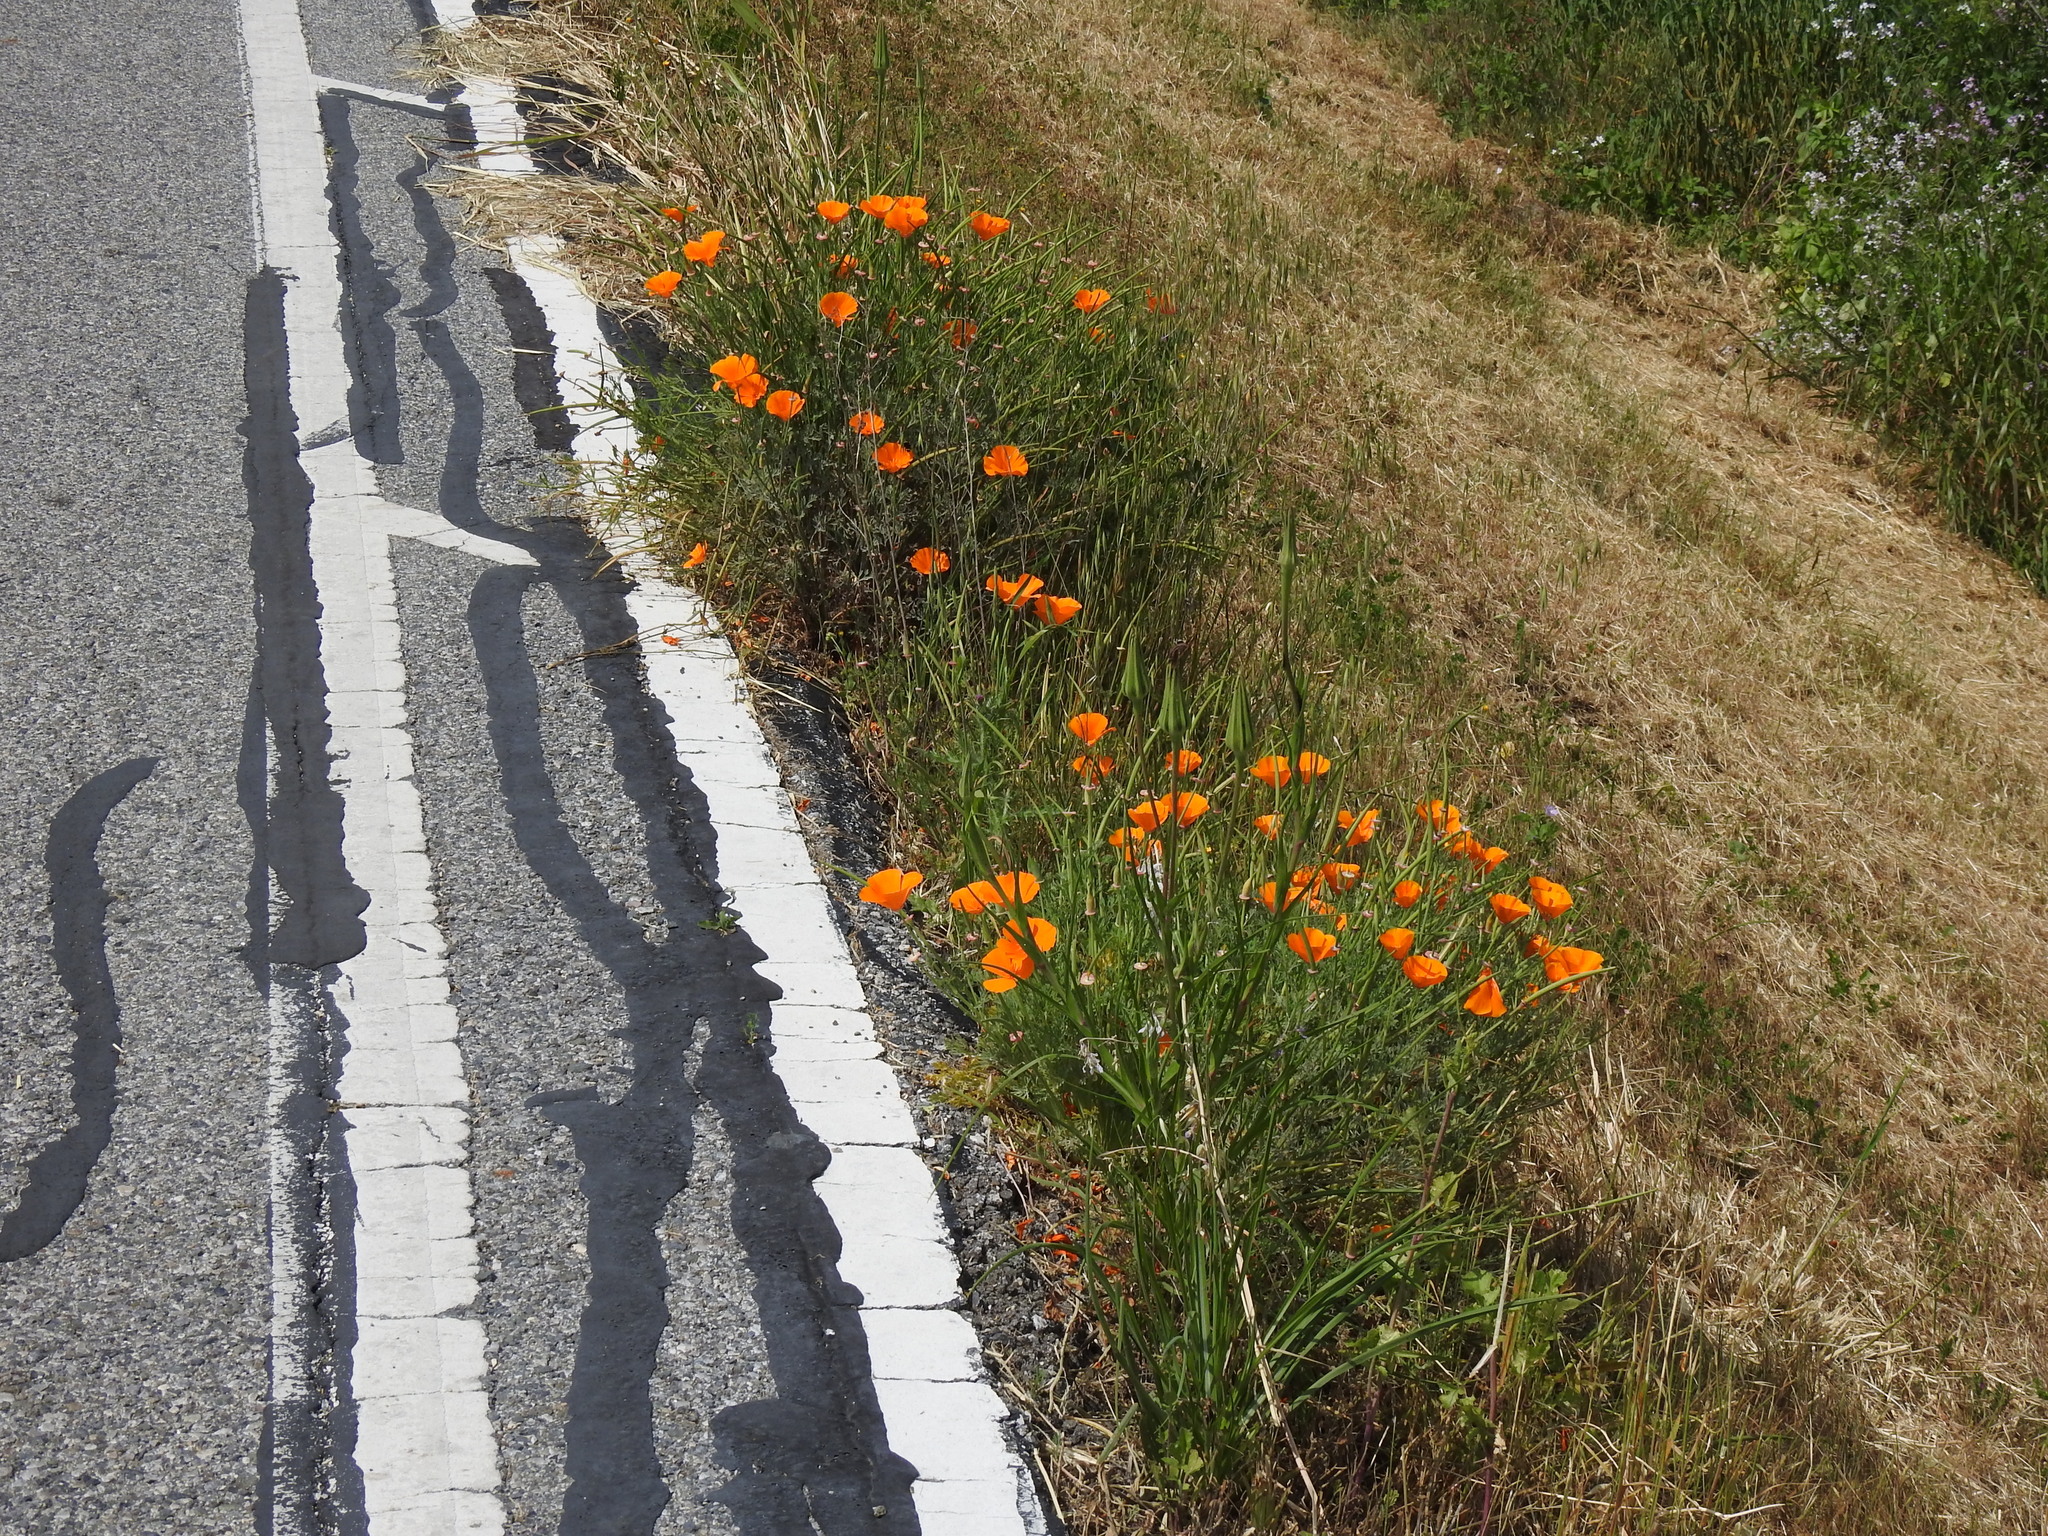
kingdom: Plantae
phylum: Tracheophyta
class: Magnoliopsida
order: Ranunculales
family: Papaveraceae
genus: Eschscholzia
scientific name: Eschscholzia californica
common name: California poppy
